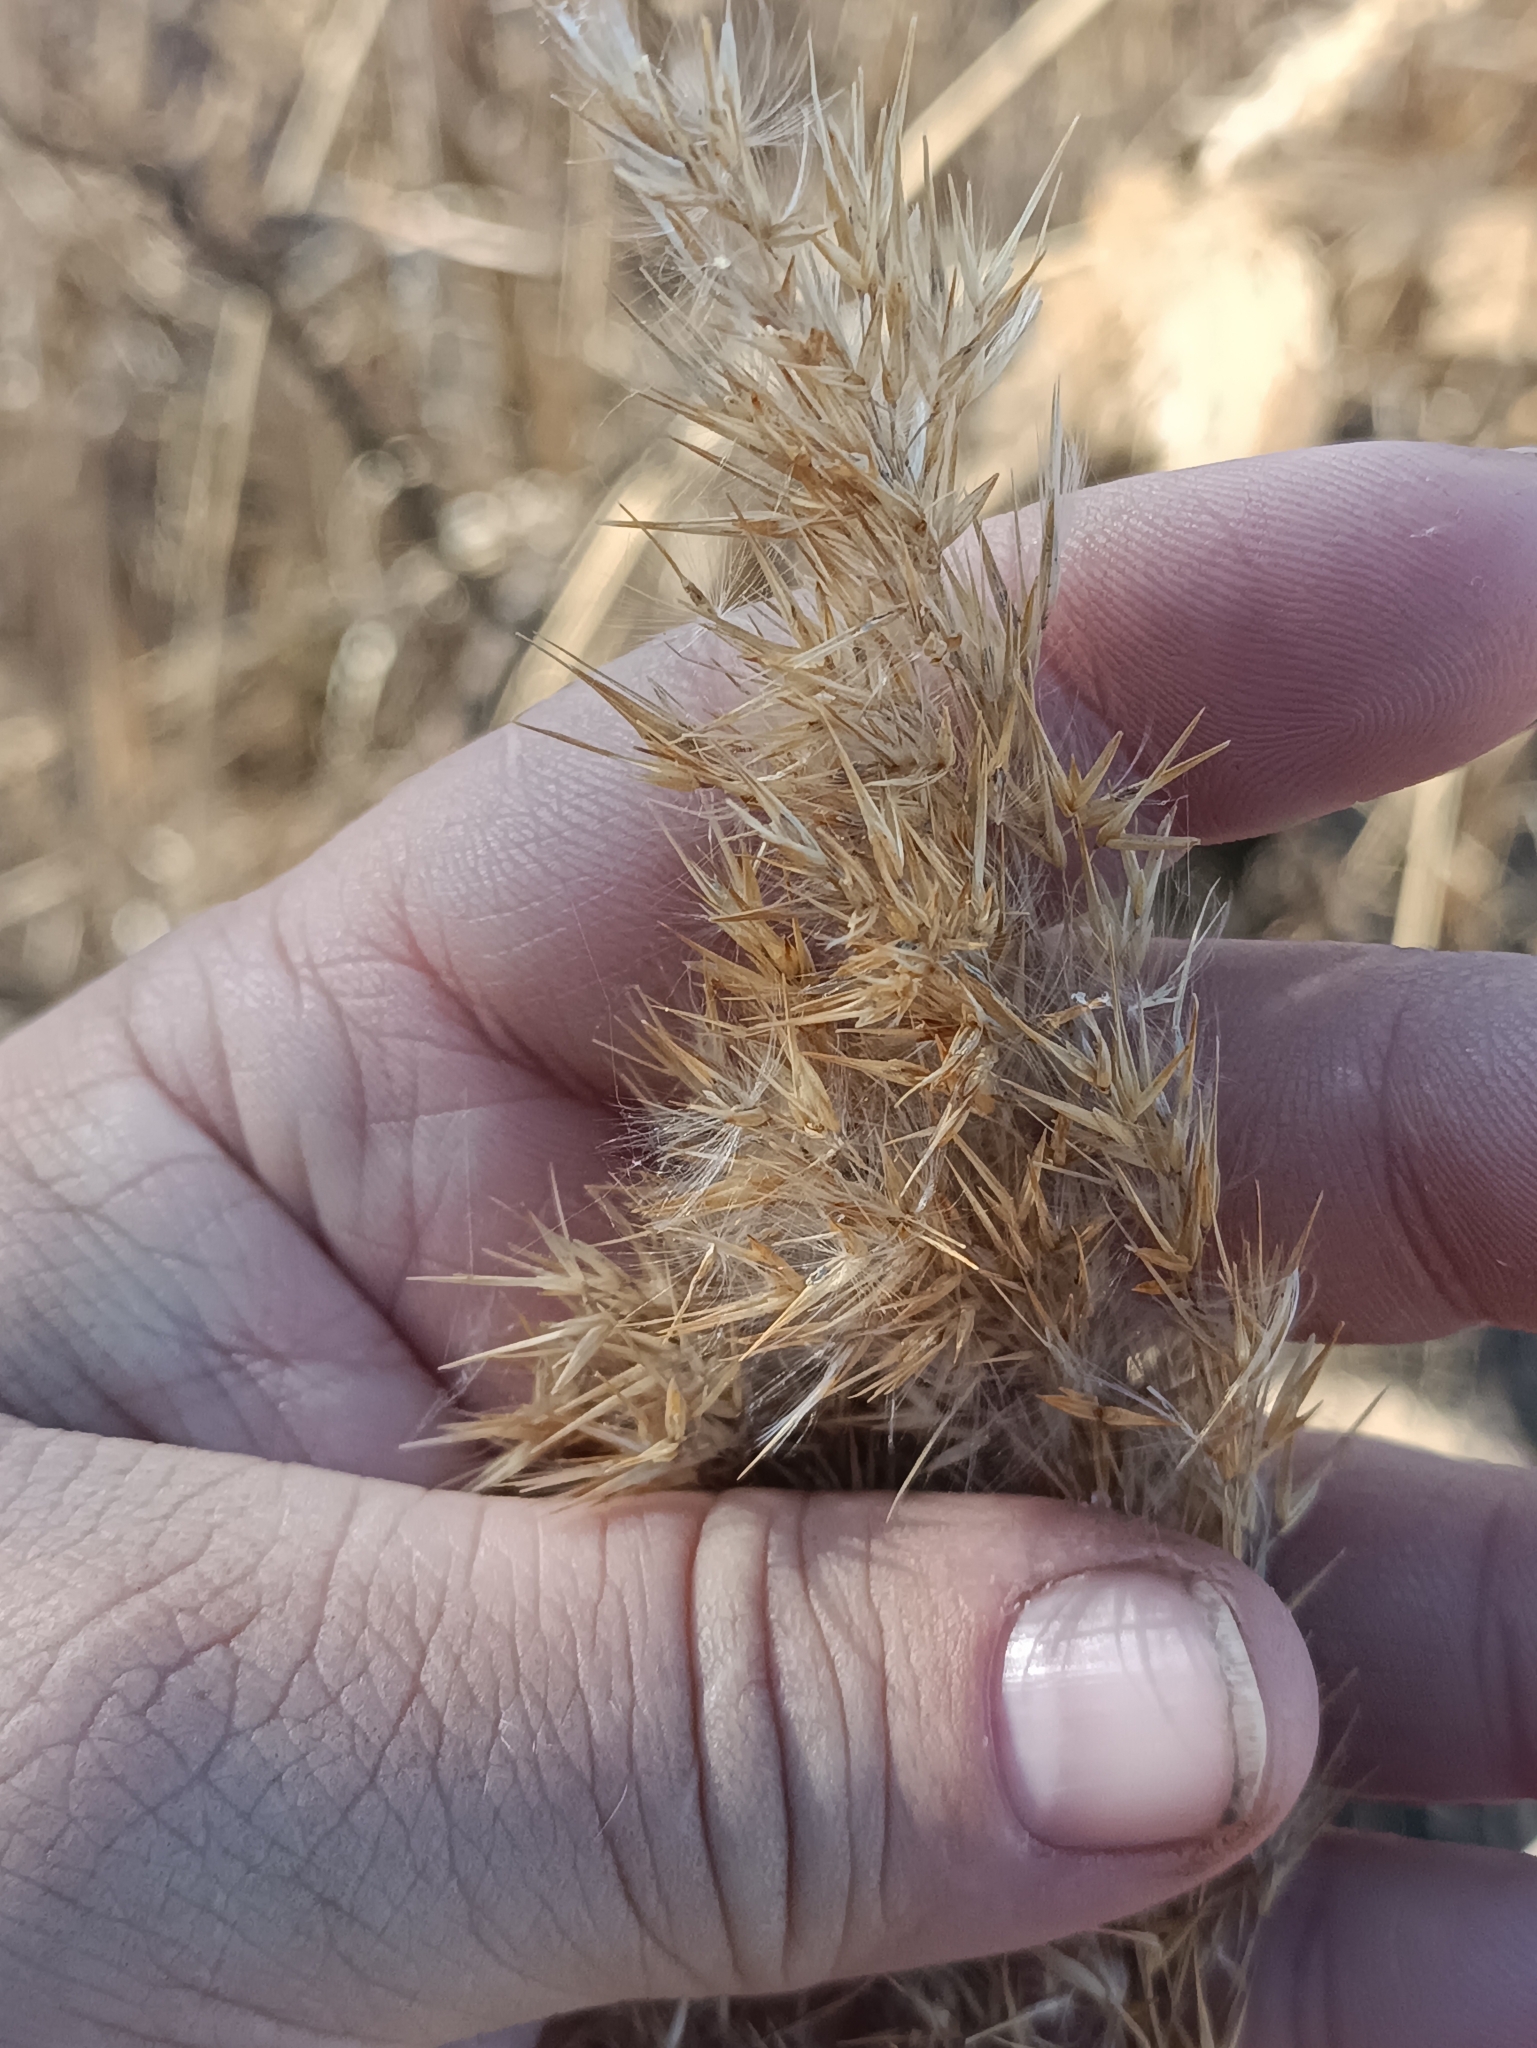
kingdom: Plantae
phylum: Tracheophyta
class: Liliopsida
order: Poales
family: Poaceae
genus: Phragmites
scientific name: Phragmites australis
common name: Common reed
